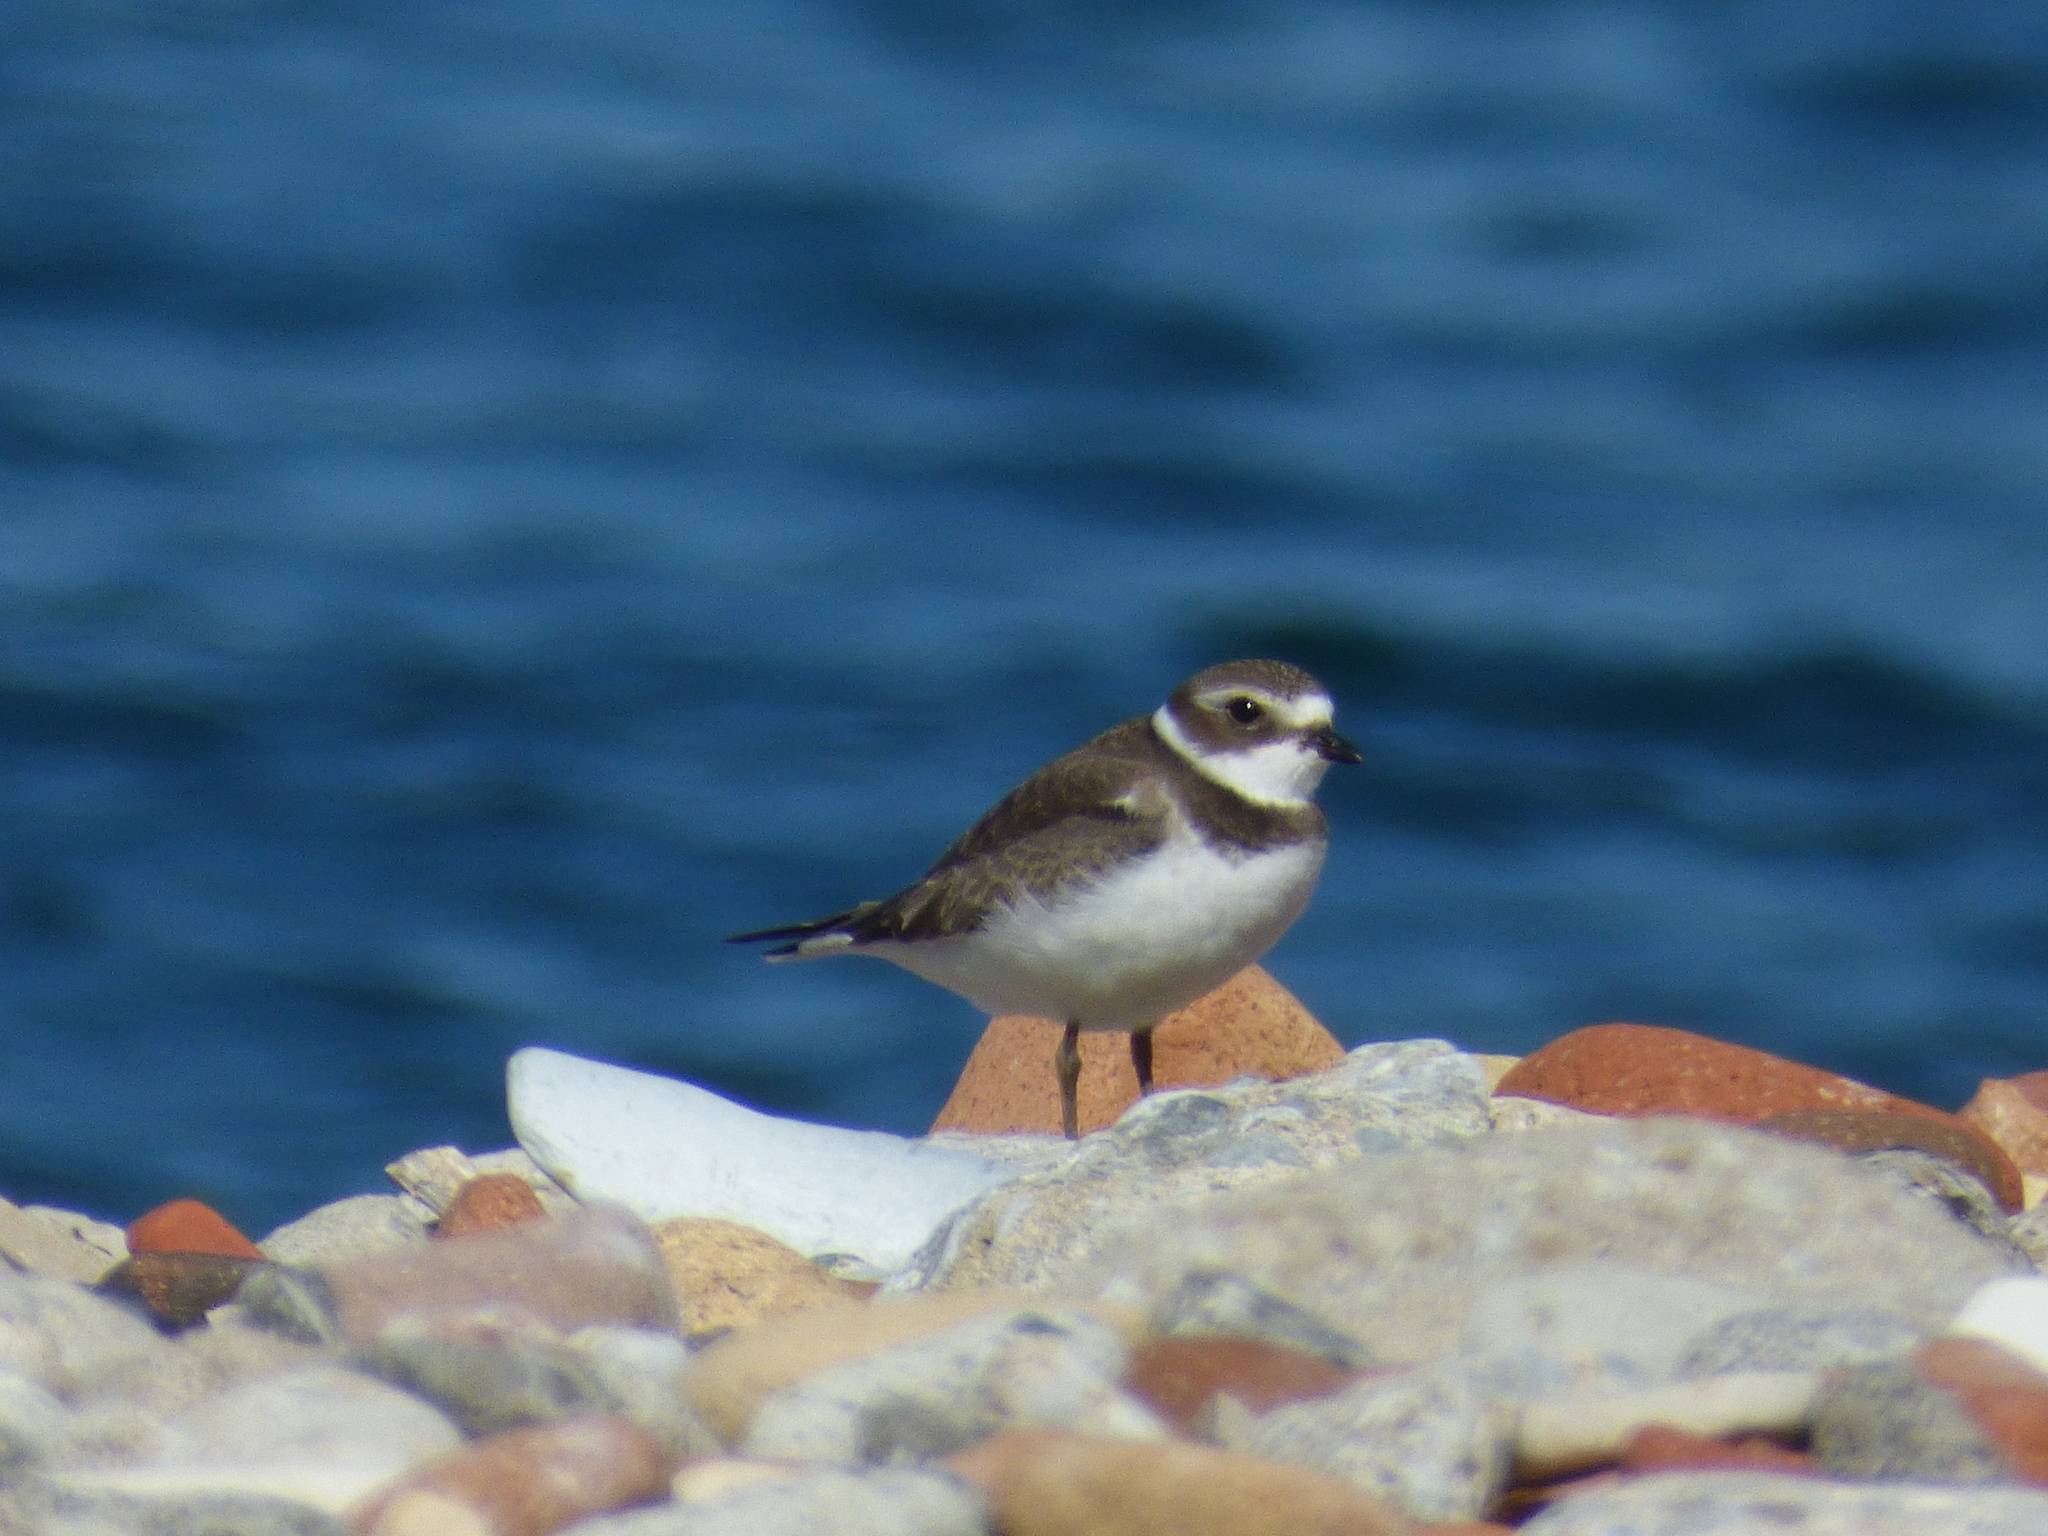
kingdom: Animalia
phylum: Chordata
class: Aves
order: Charadriiformes
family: Charadriidae
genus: Charadrius
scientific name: Charadrius semipalmatus
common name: Semipalmated plover
